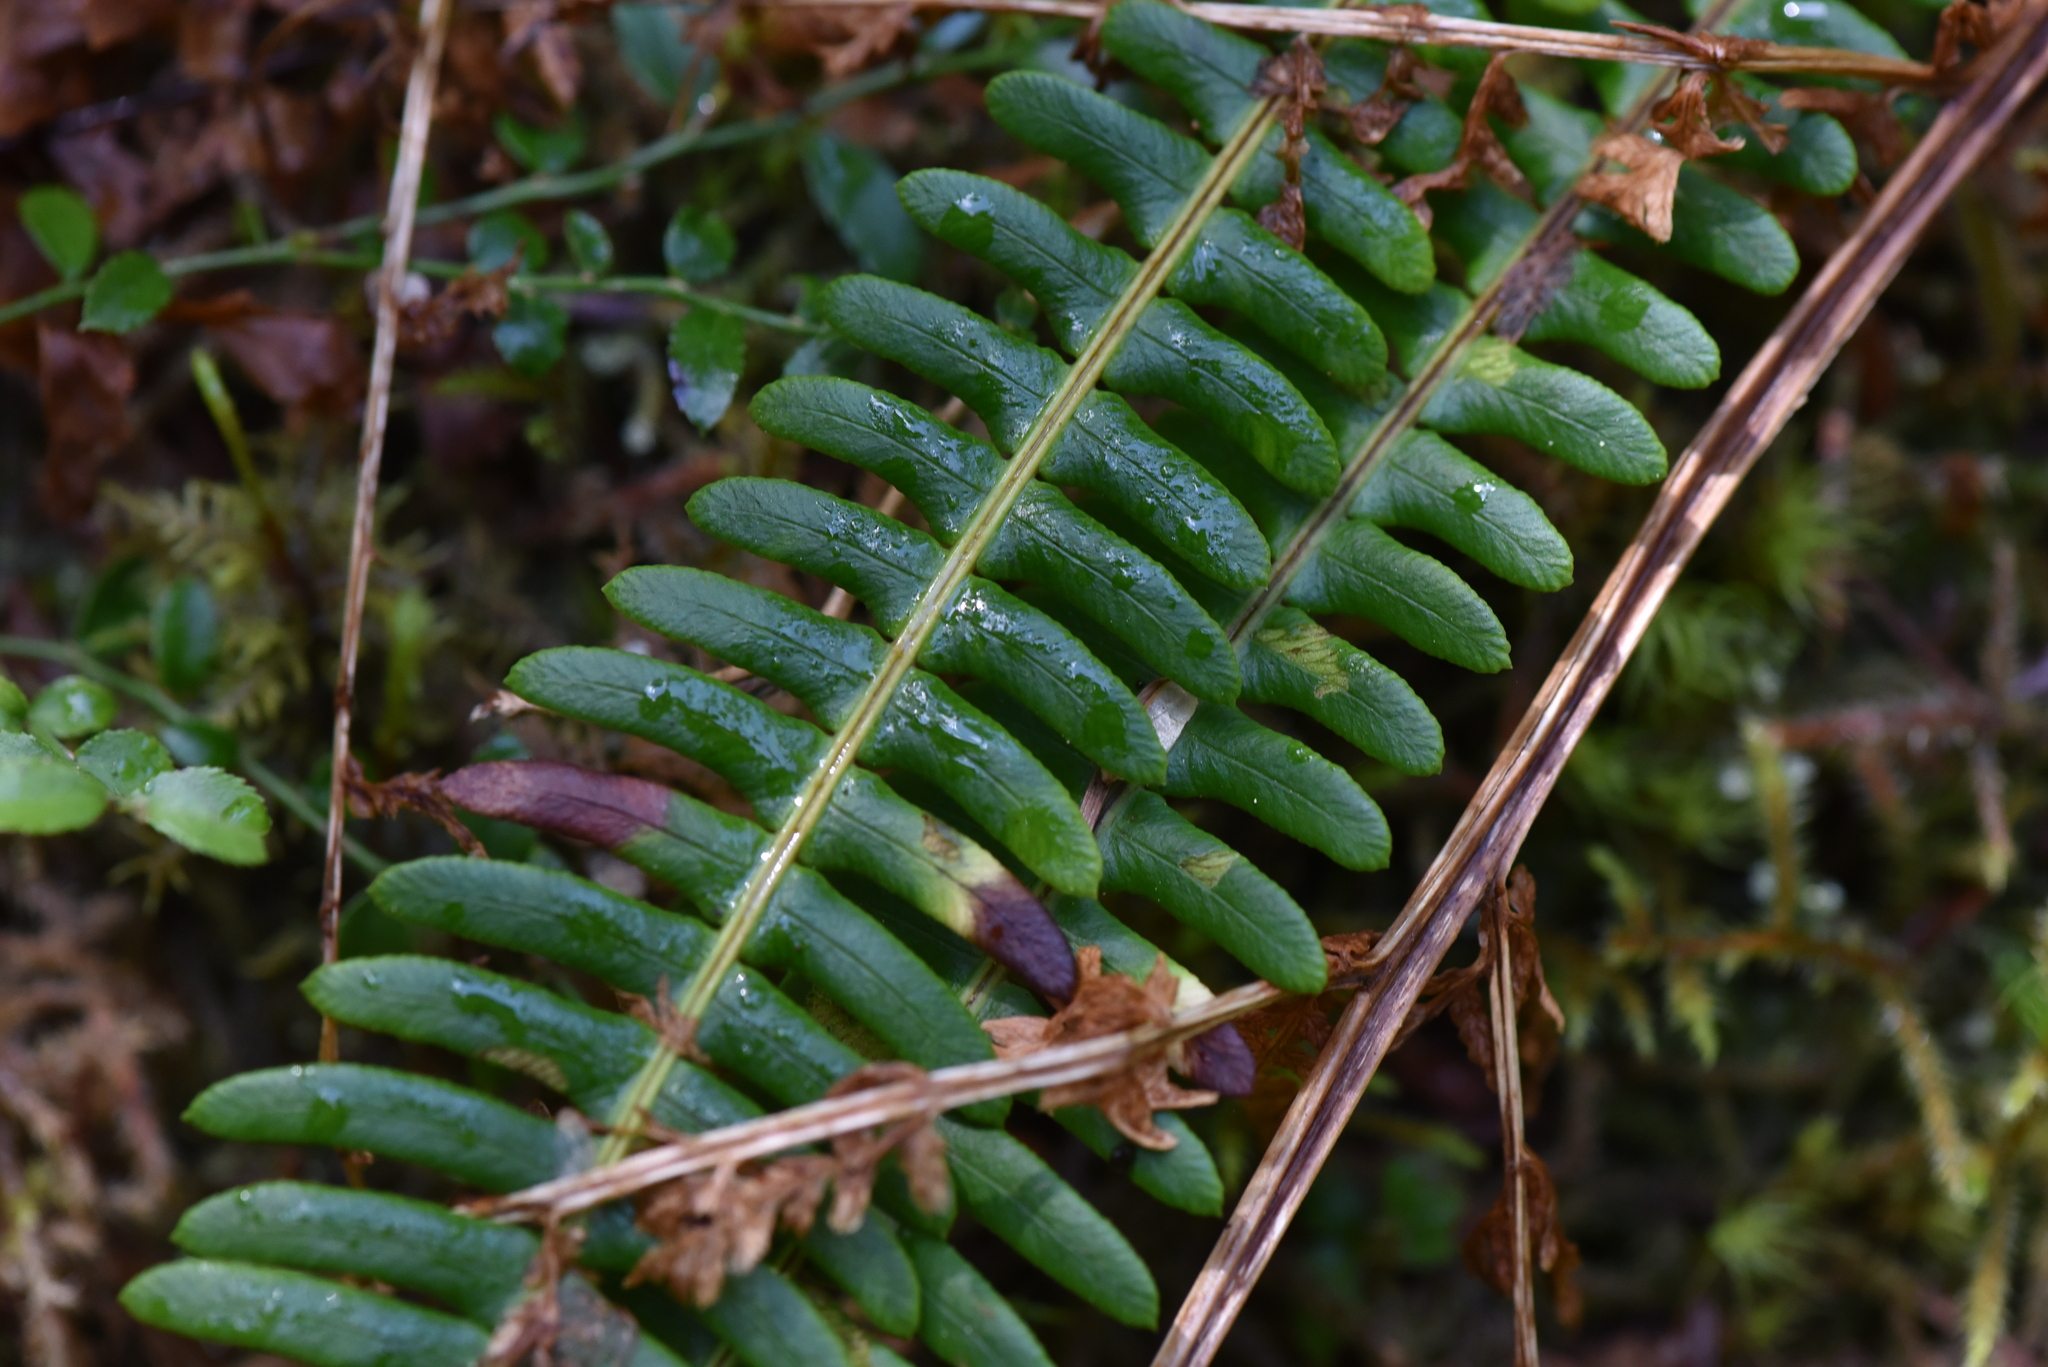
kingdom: Plantae
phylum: Tracheophyta
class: Polypodiopsida
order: Polypodiales
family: Blechnaceae
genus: Struthiopteris
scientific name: Struthiopteris spicant
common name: Deer fern
